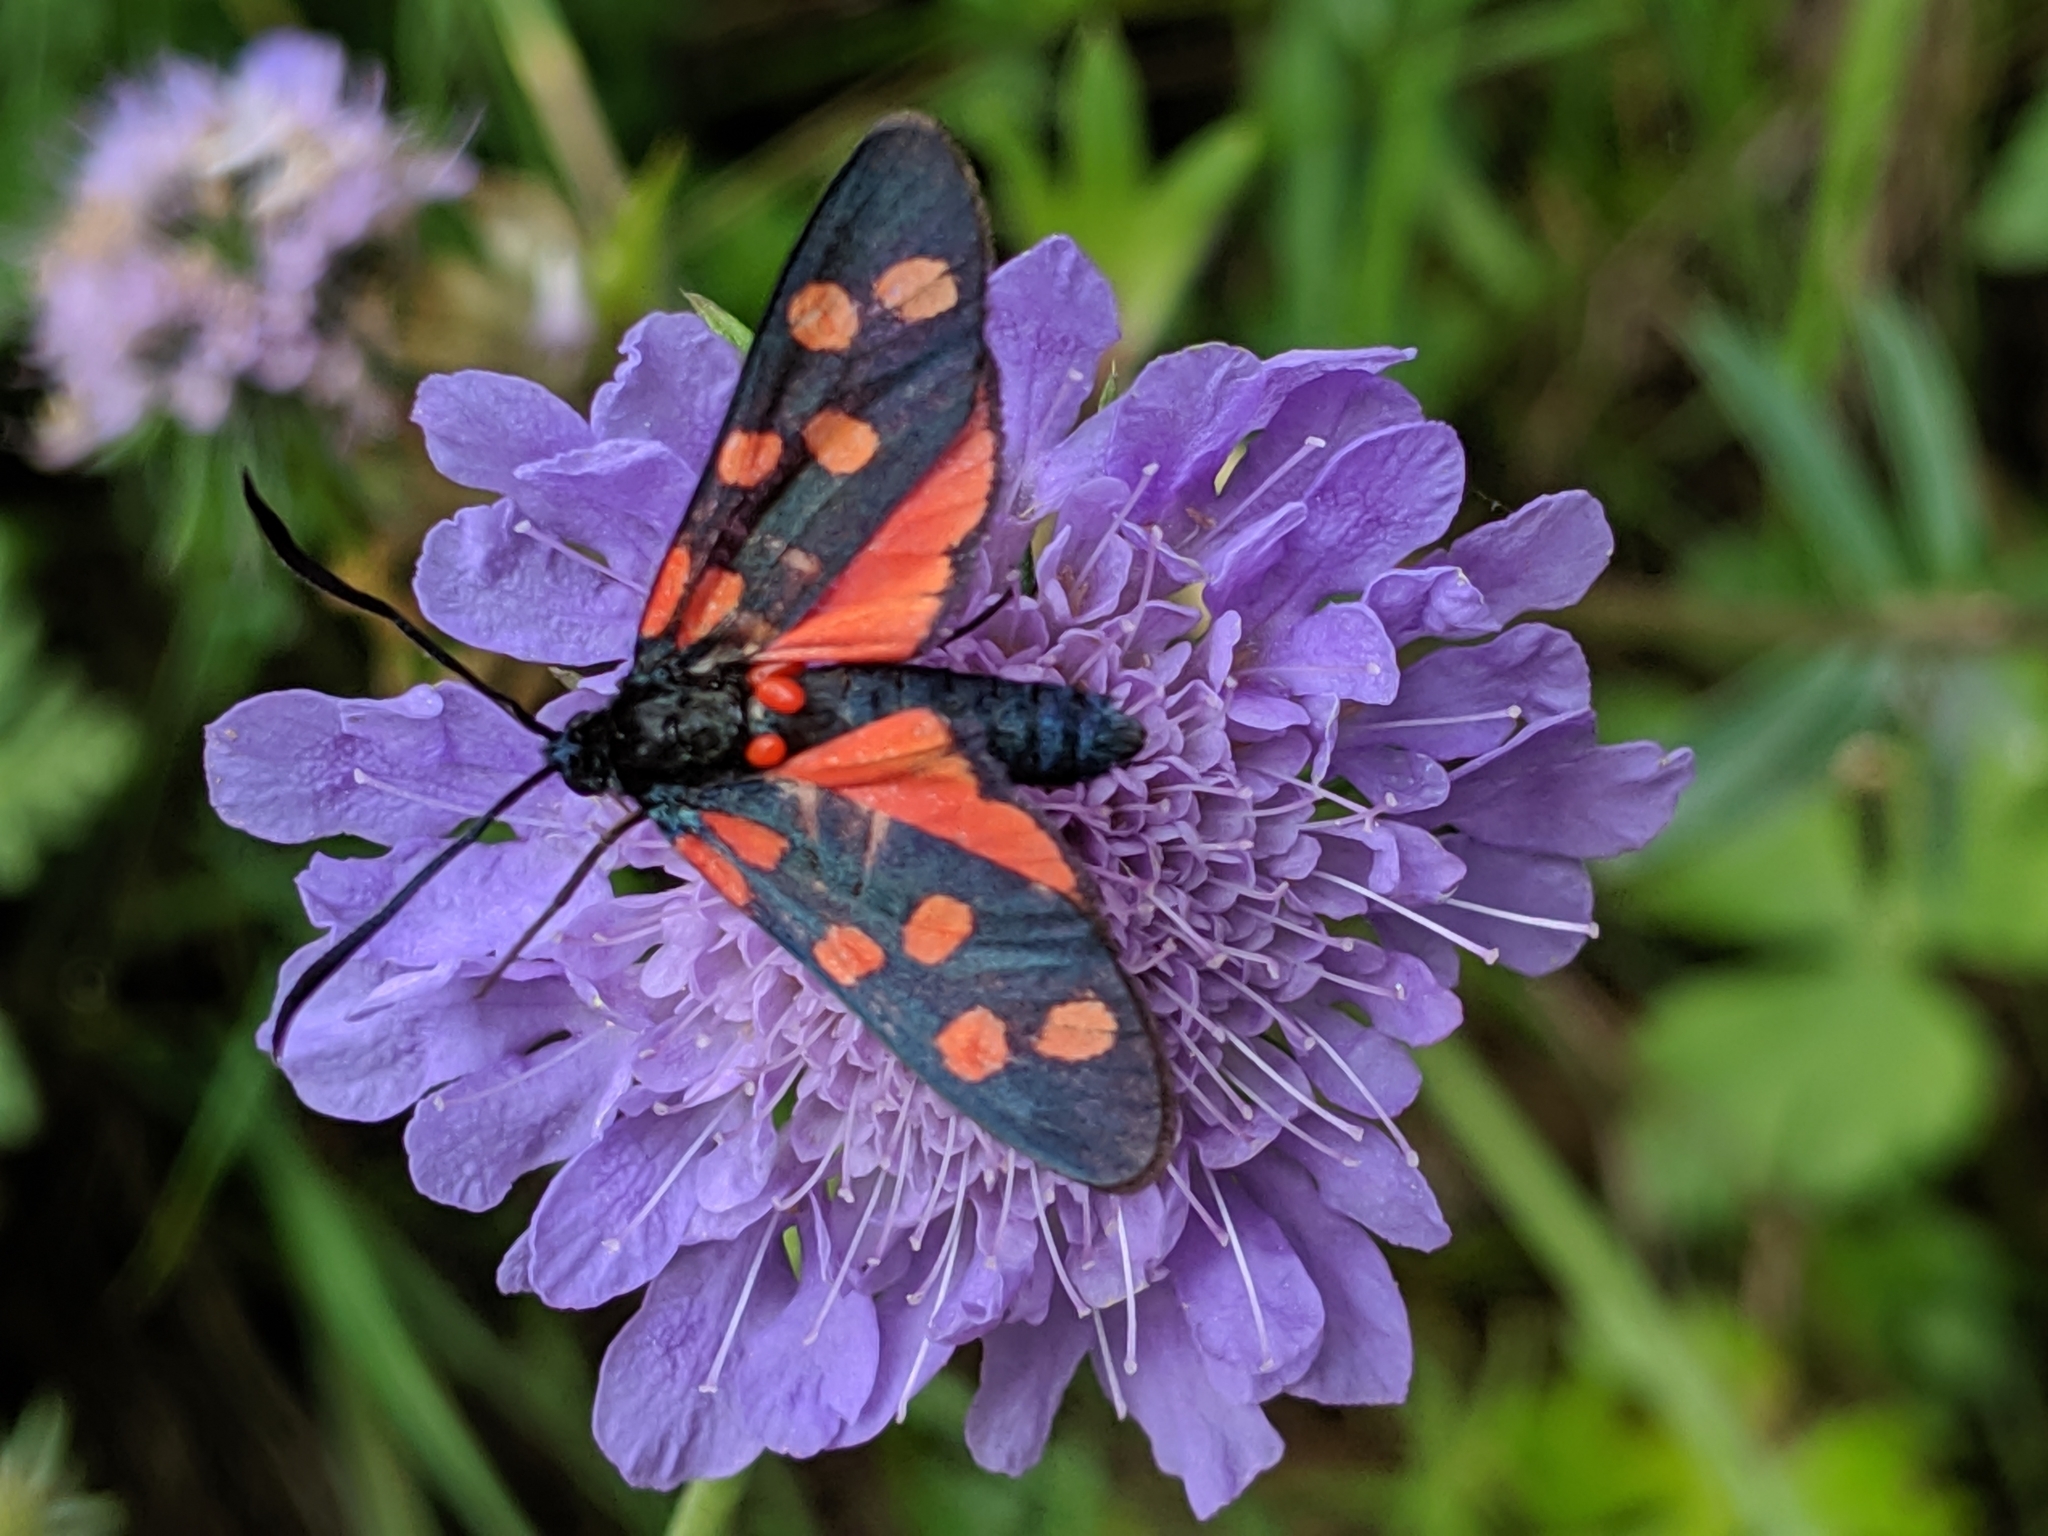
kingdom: Animalia
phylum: Arthropoda
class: Insecta
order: Lepidoptera
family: Zygaenidae
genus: Zygaena
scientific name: Zygaena transalpina
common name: Southern six spot burnet
